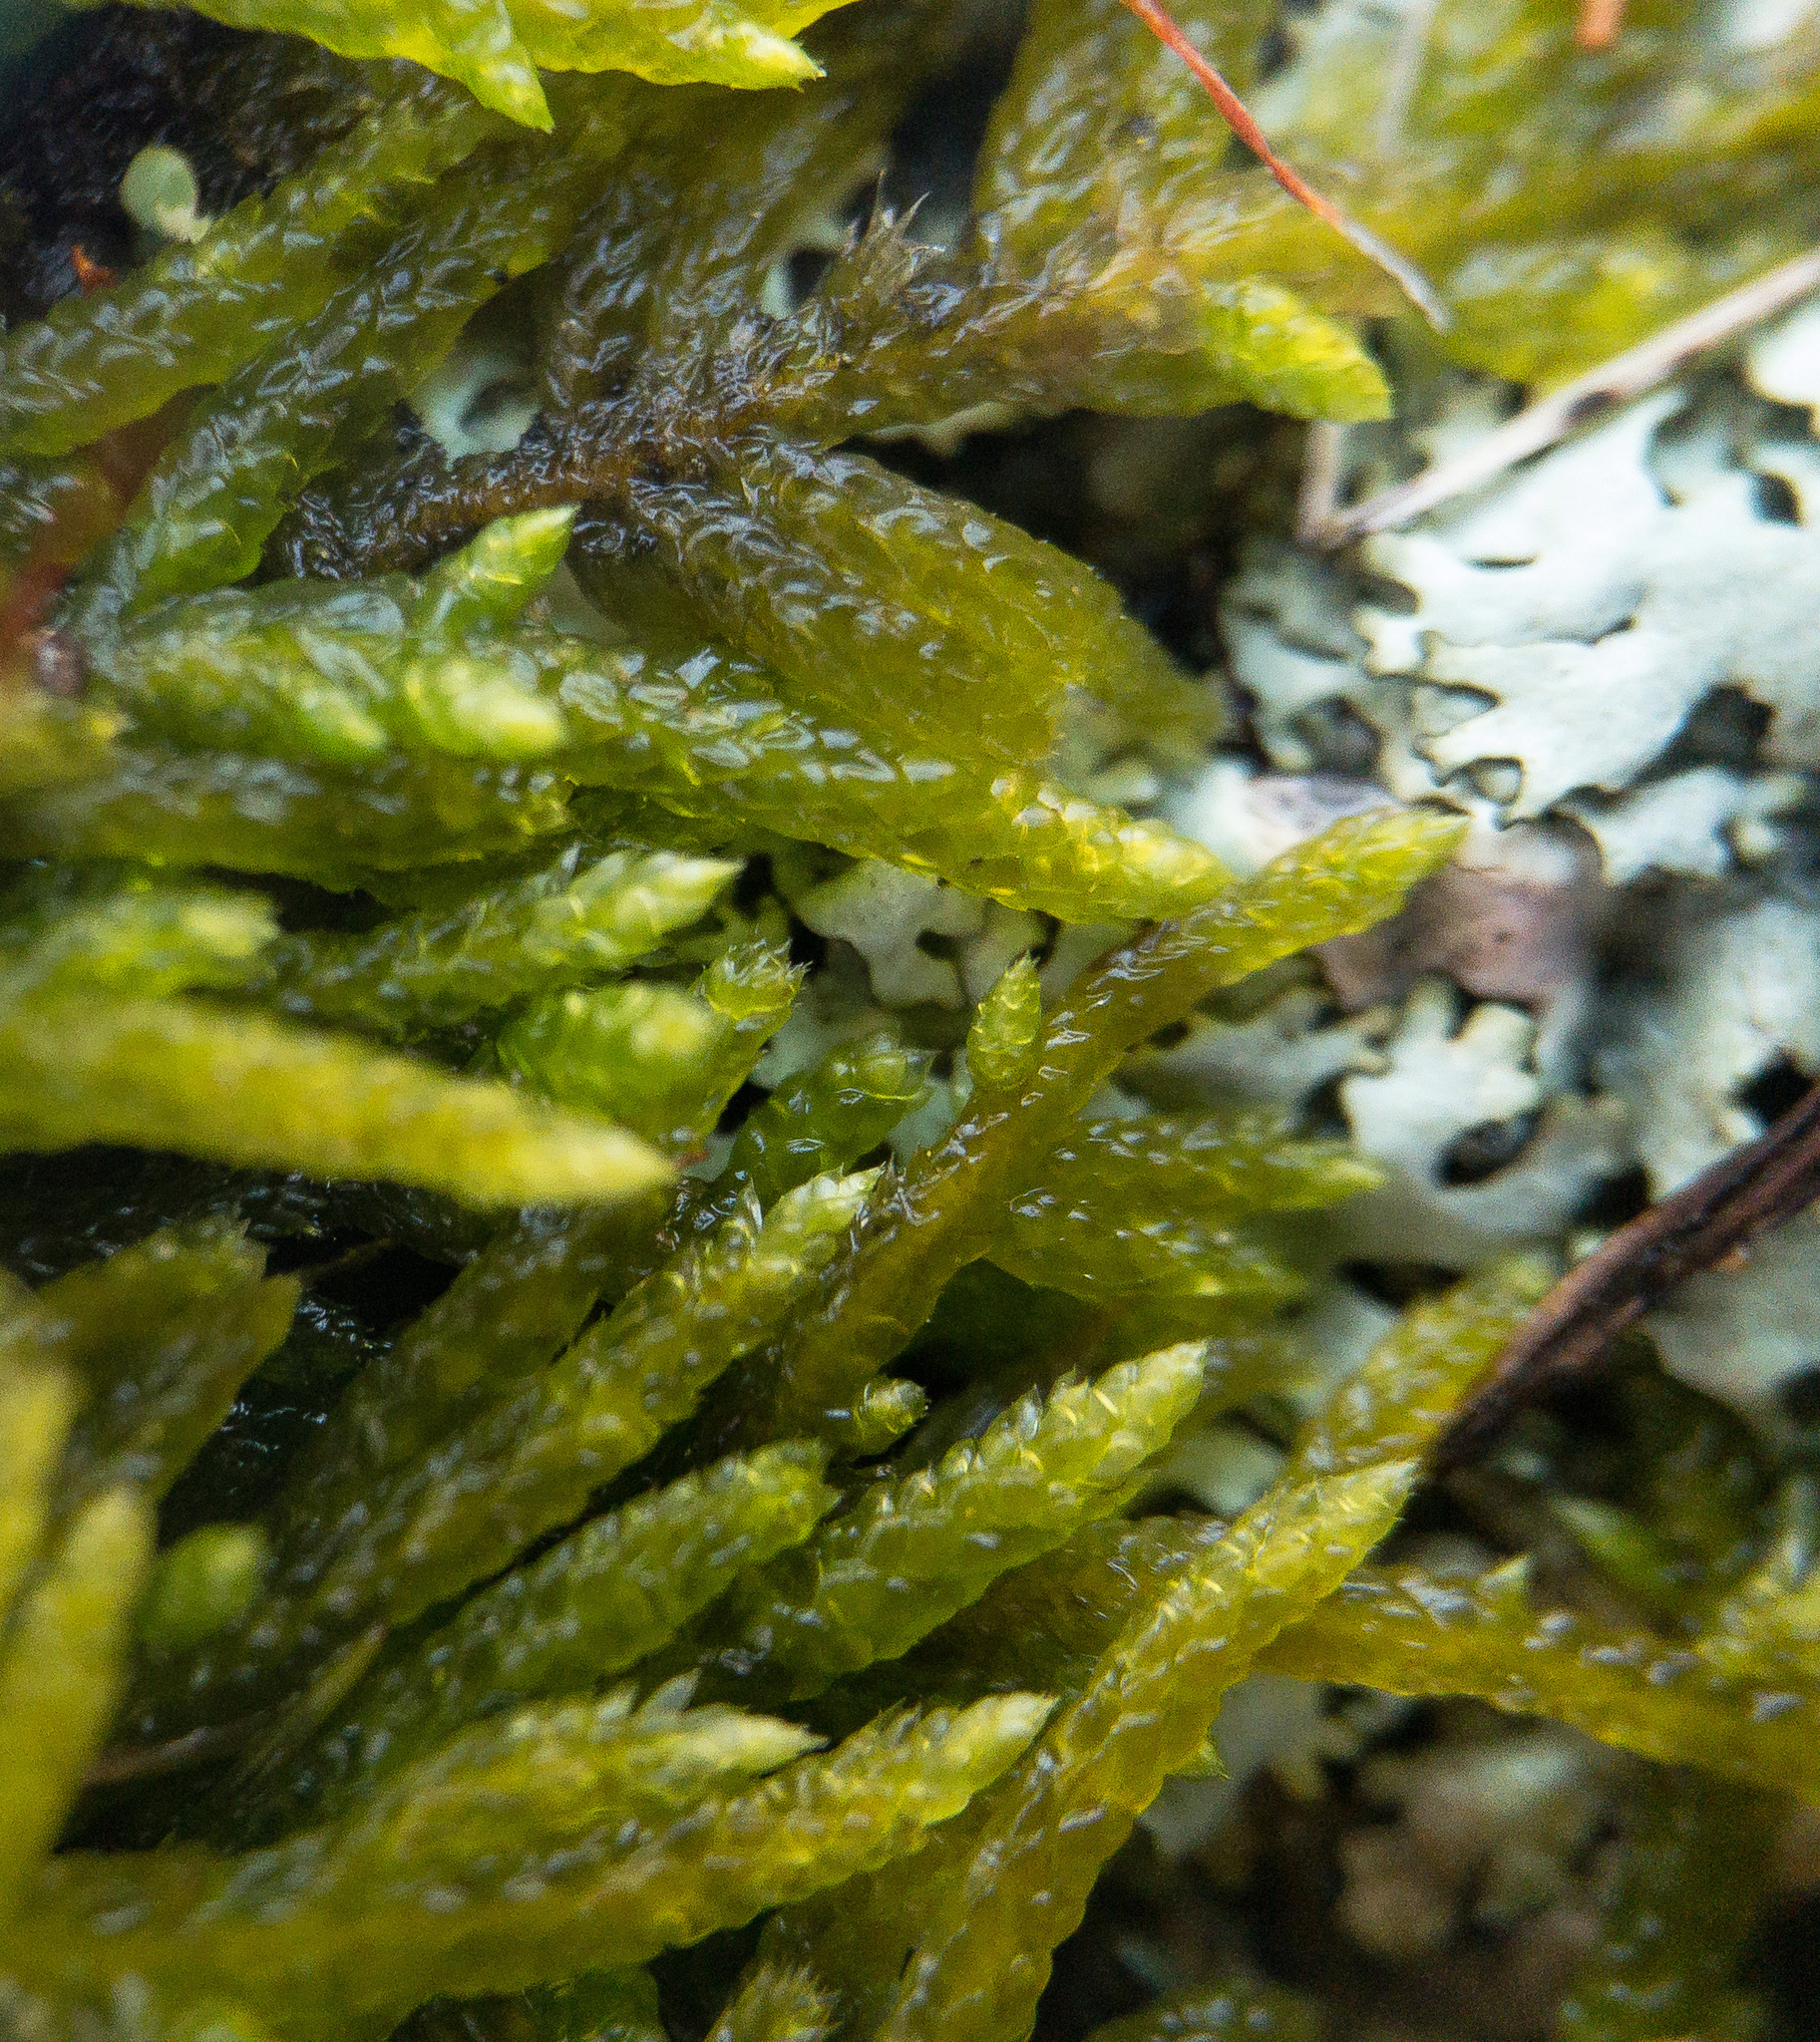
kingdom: Plantae
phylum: Bryophyta
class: Bryopsida
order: Hypnales
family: Entodontaceae
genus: Entodon
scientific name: Entodon seductrix
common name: Round-stemmed entodon moss
